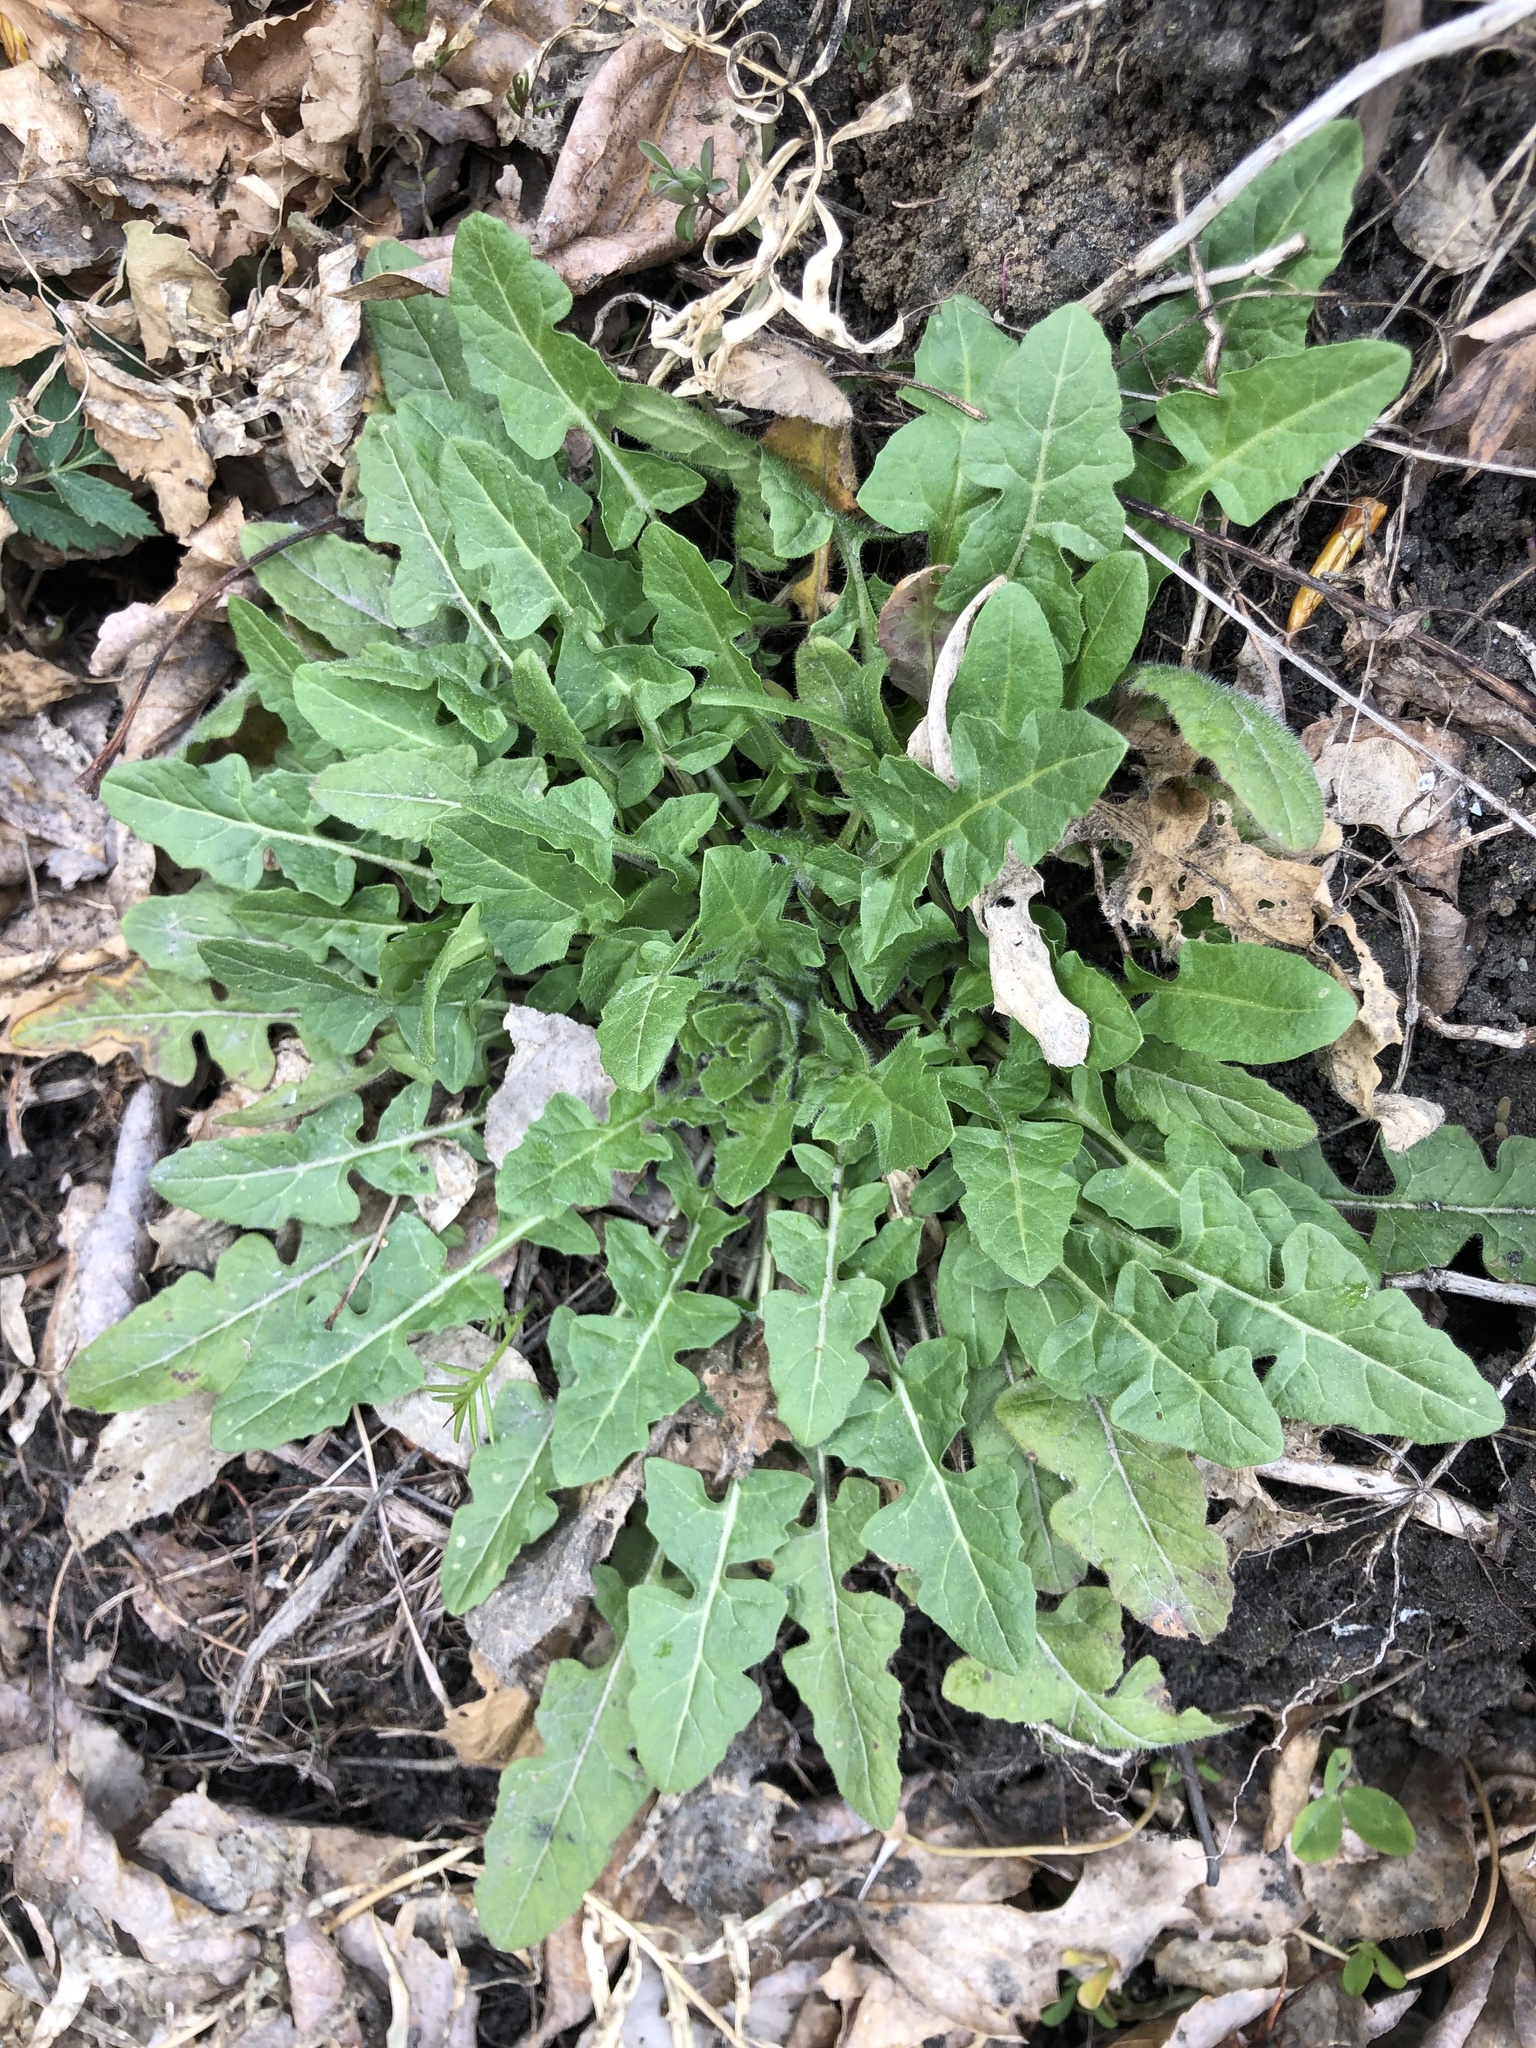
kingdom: Plantae
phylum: Tracheophyta
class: Magnoliopsida
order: Brassicales
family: Brassicaceae
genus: Sisymbrium
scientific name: Sisymbrium loeselii
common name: False london-rocket
